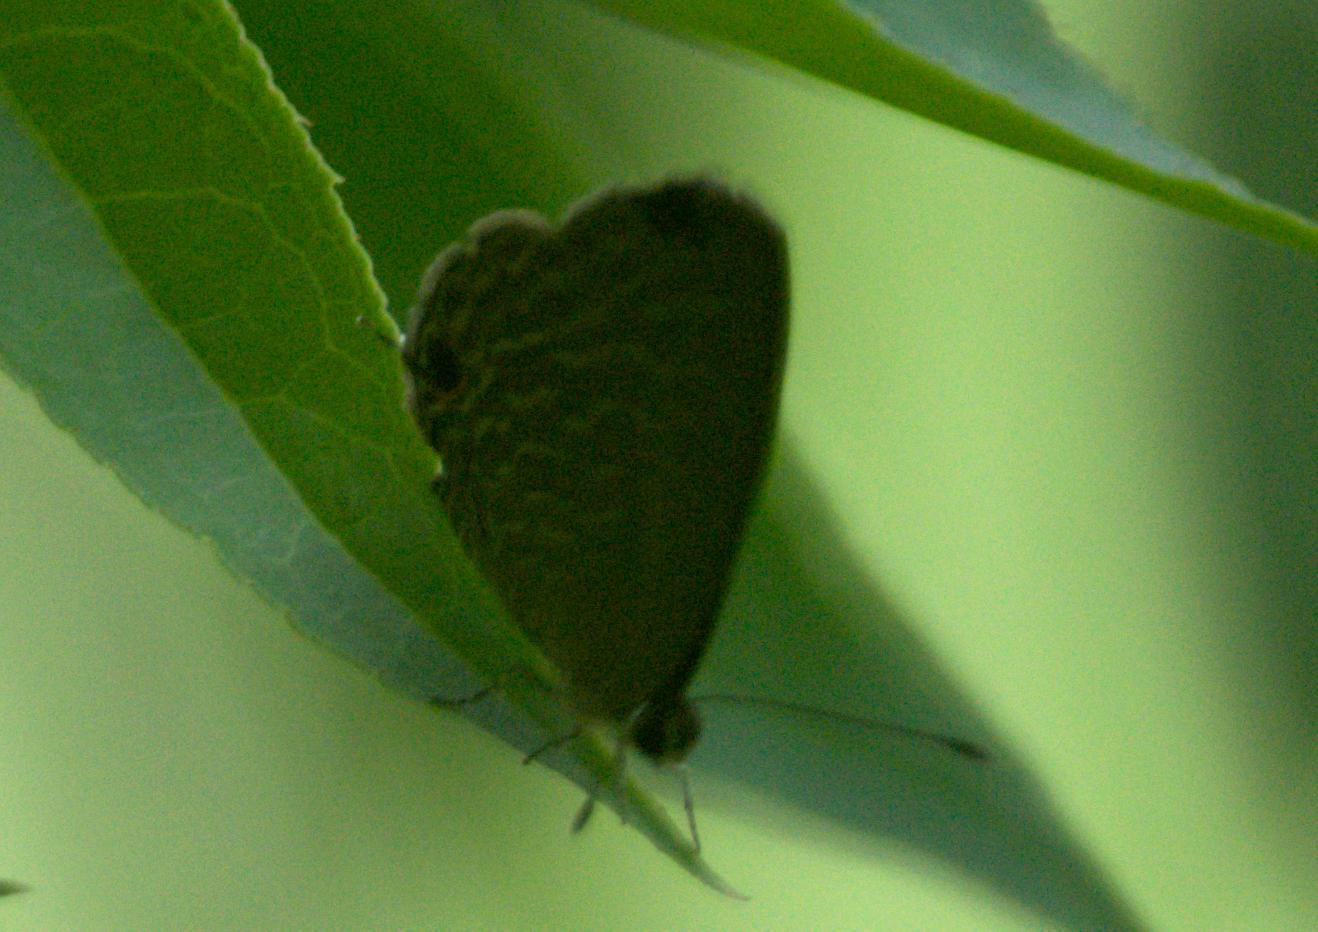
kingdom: Animalia
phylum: Arthropoda
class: Insecta
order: Lepidoptera
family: Lycaenidae
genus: Jamides
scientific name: Jamides bochus
